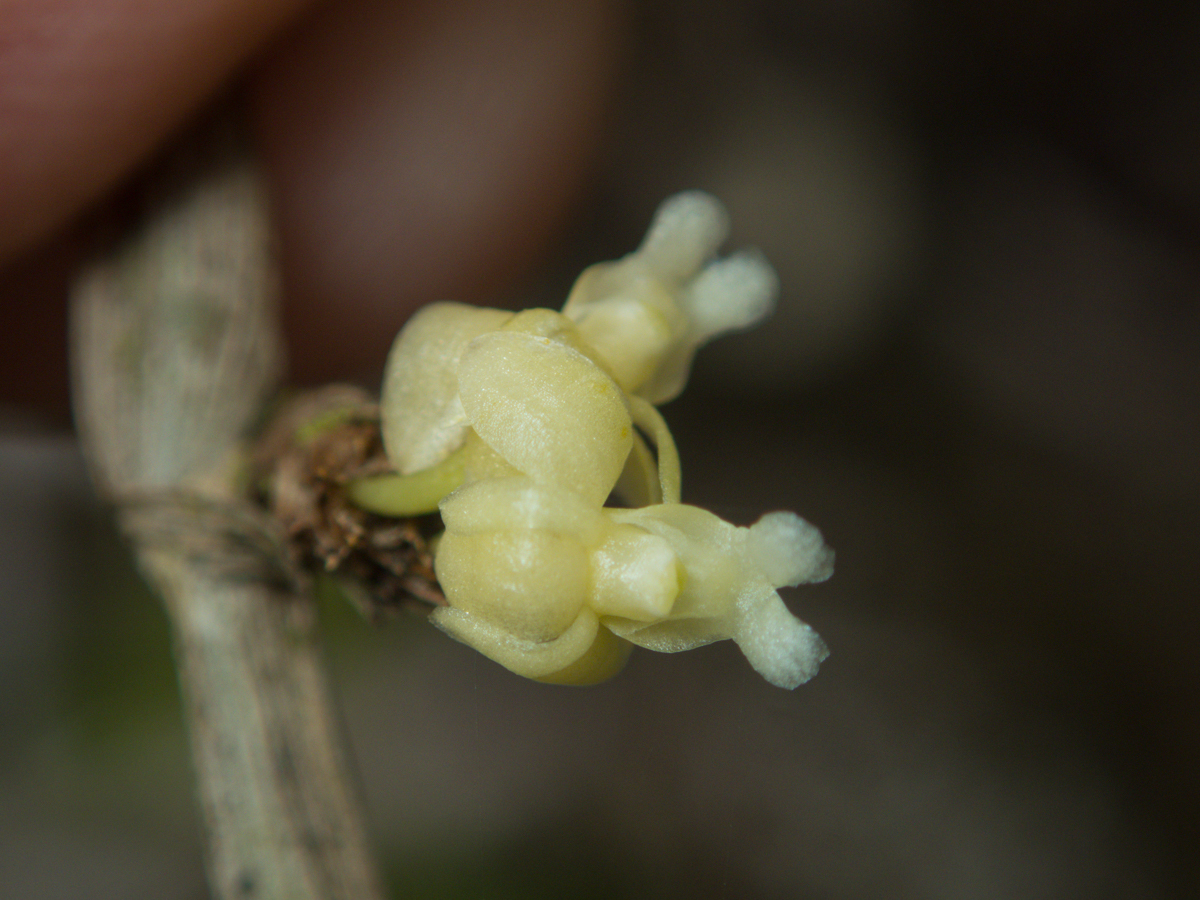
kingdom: Plantae
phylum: Tracheophyta
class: Liliopsida
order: Asparagales
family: Orchidaceae
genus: Dendrobium
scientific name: Dendrobium aloifolium
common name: Aloe-like dendrobium
